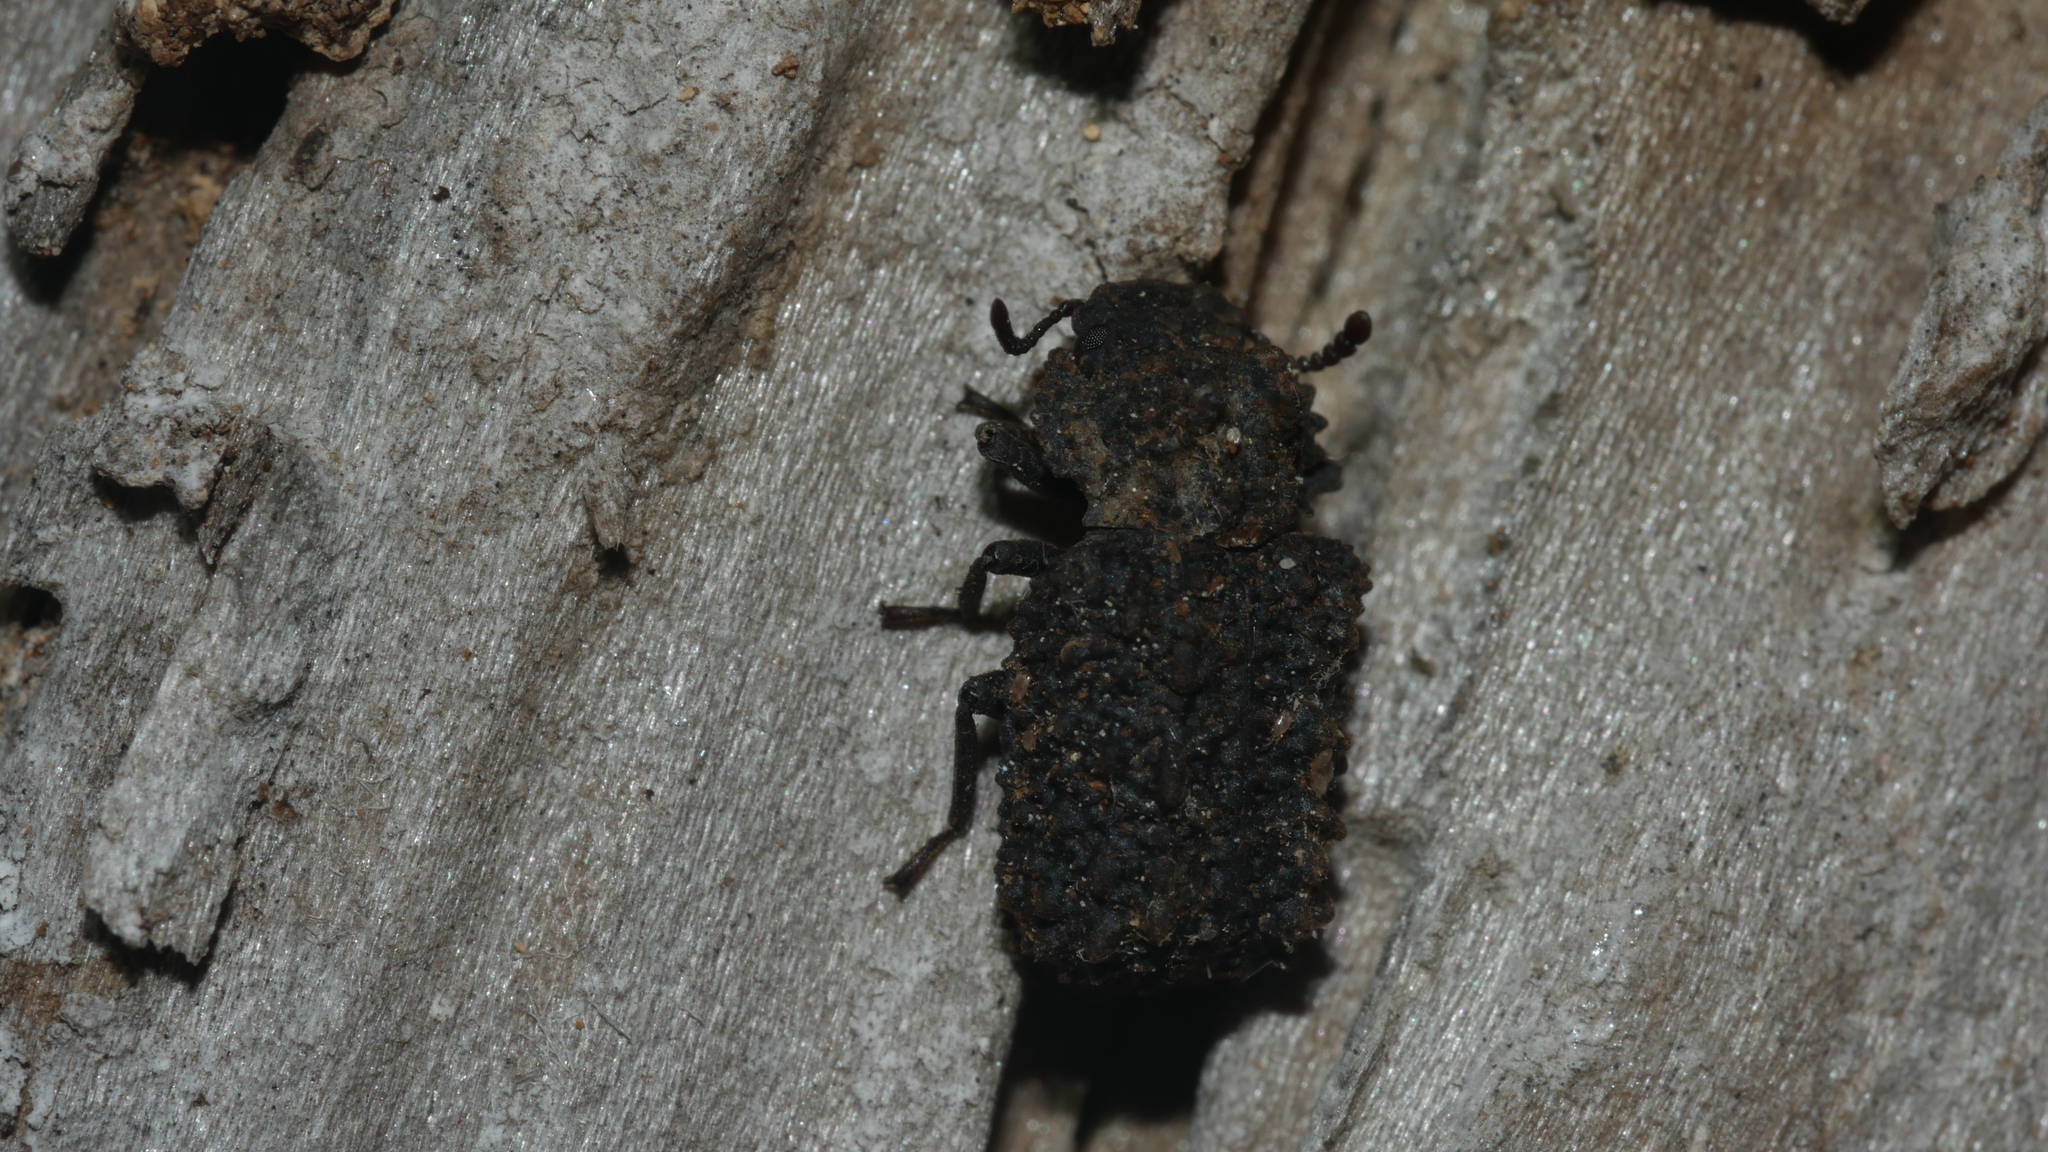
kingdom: Animalia
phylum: Arthropoda
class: Insecta
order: Coleoptera
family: Tenebrionidae
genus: Gnatocerus
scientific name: Gnatocerus cornutus
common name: Broad-horned flour beetle
